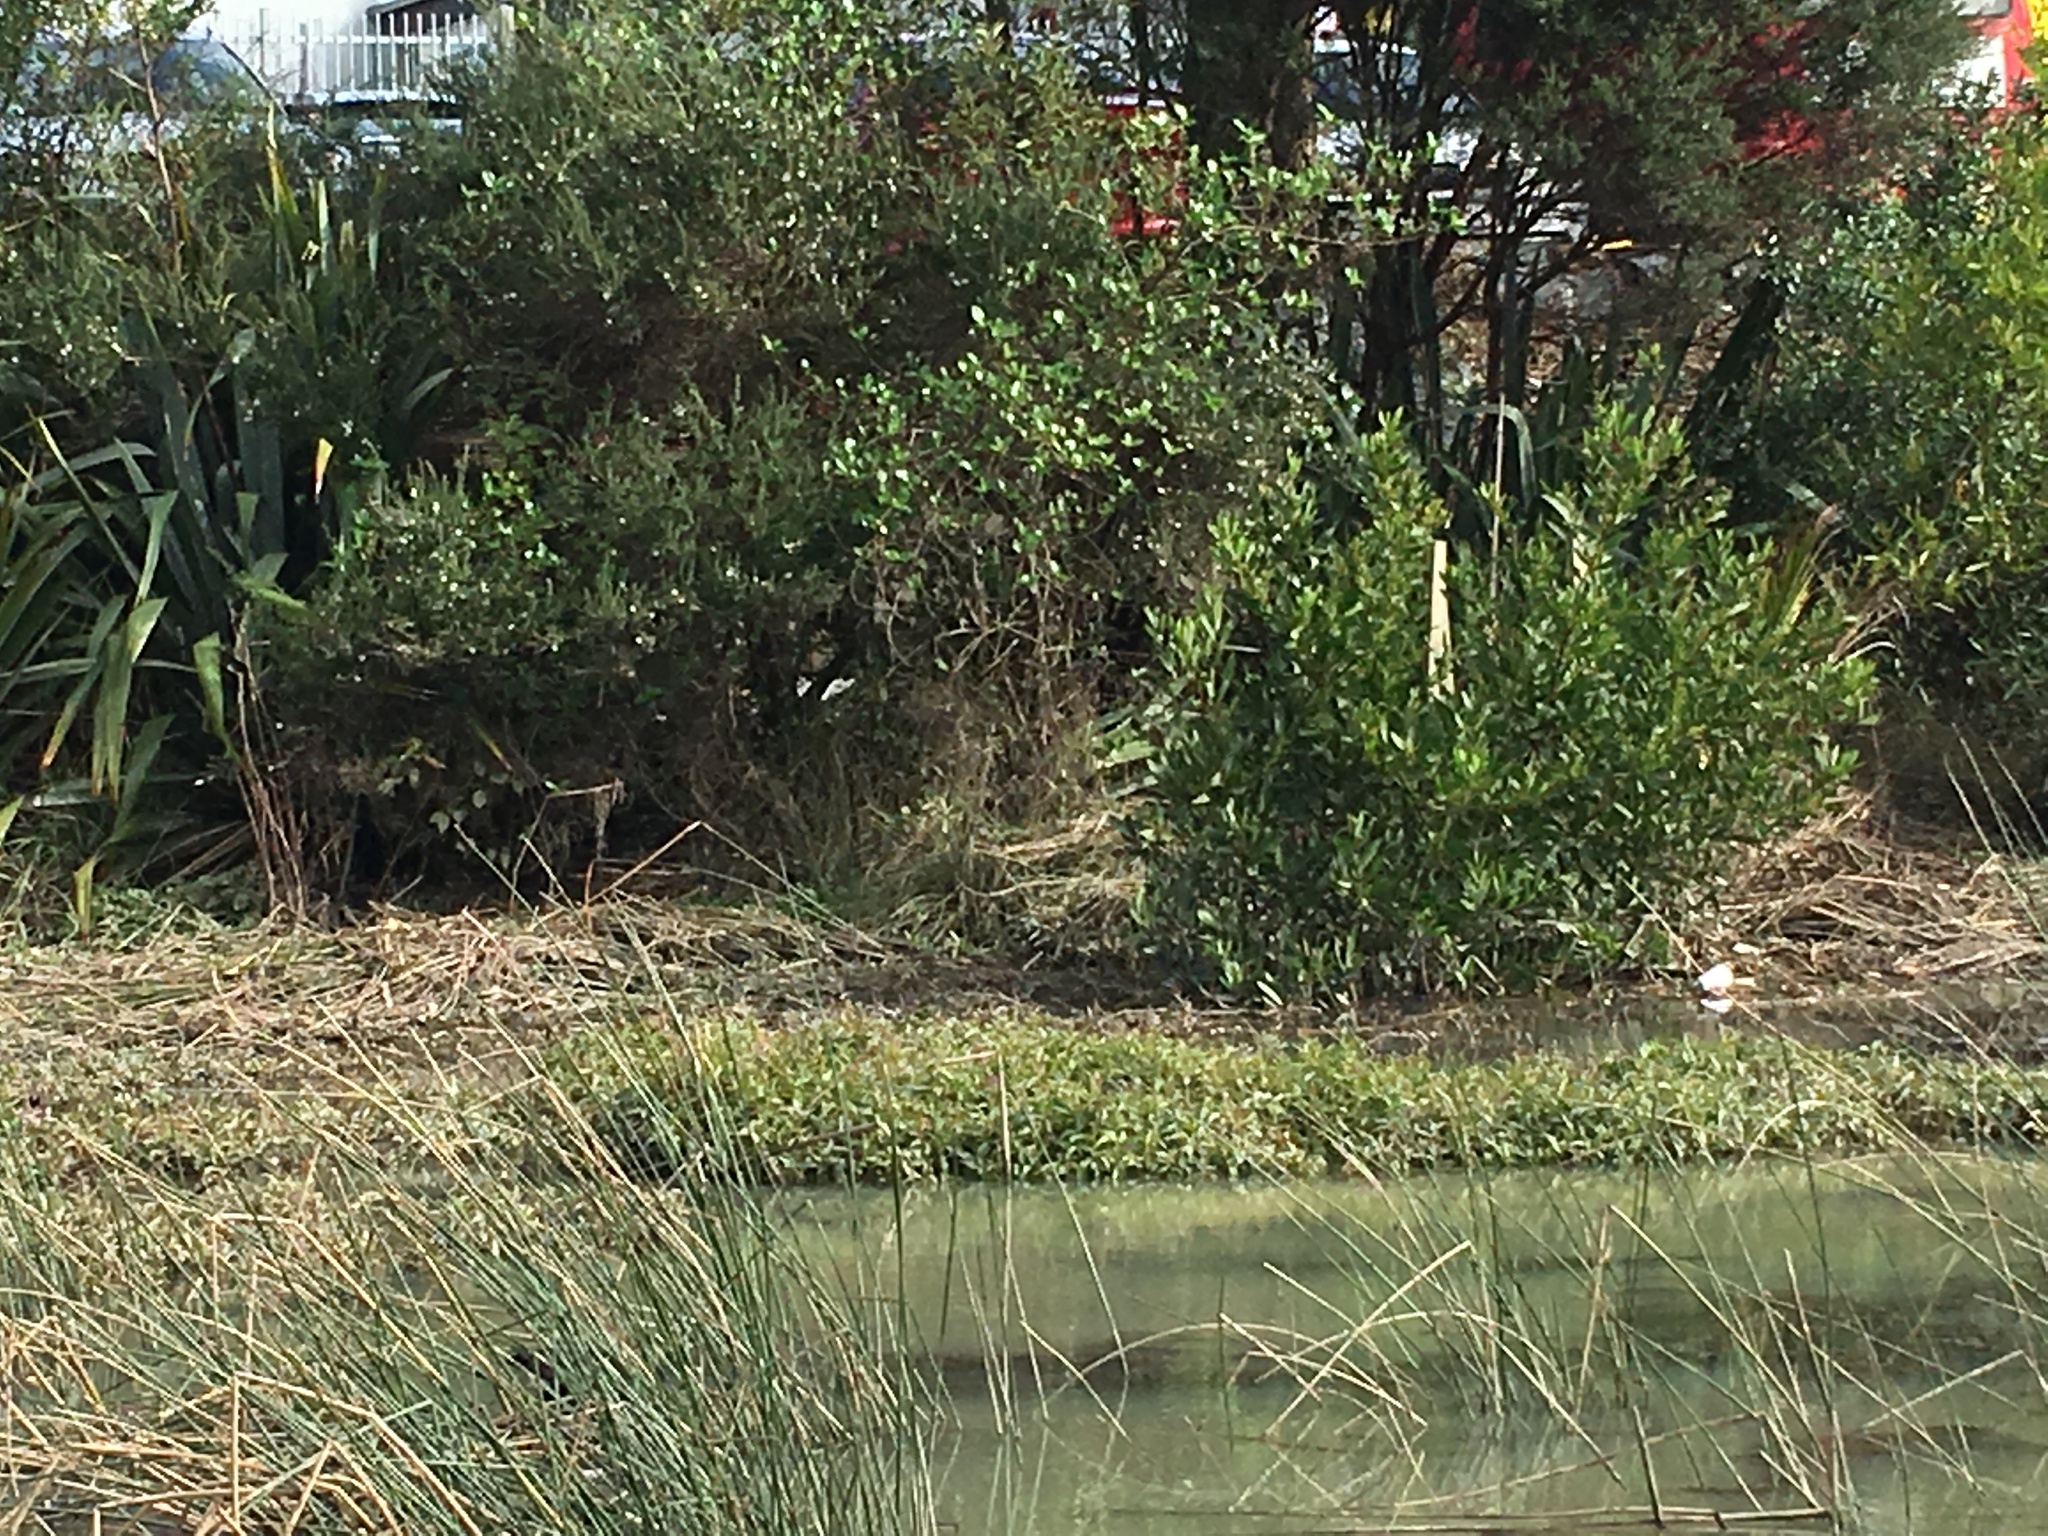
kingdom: Animalia
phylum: Chordata
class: Aves
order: Gruiformes
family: Rallidae
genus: Porphyrio
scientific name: Porphyrio melanotus
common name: Australasian swamphen
